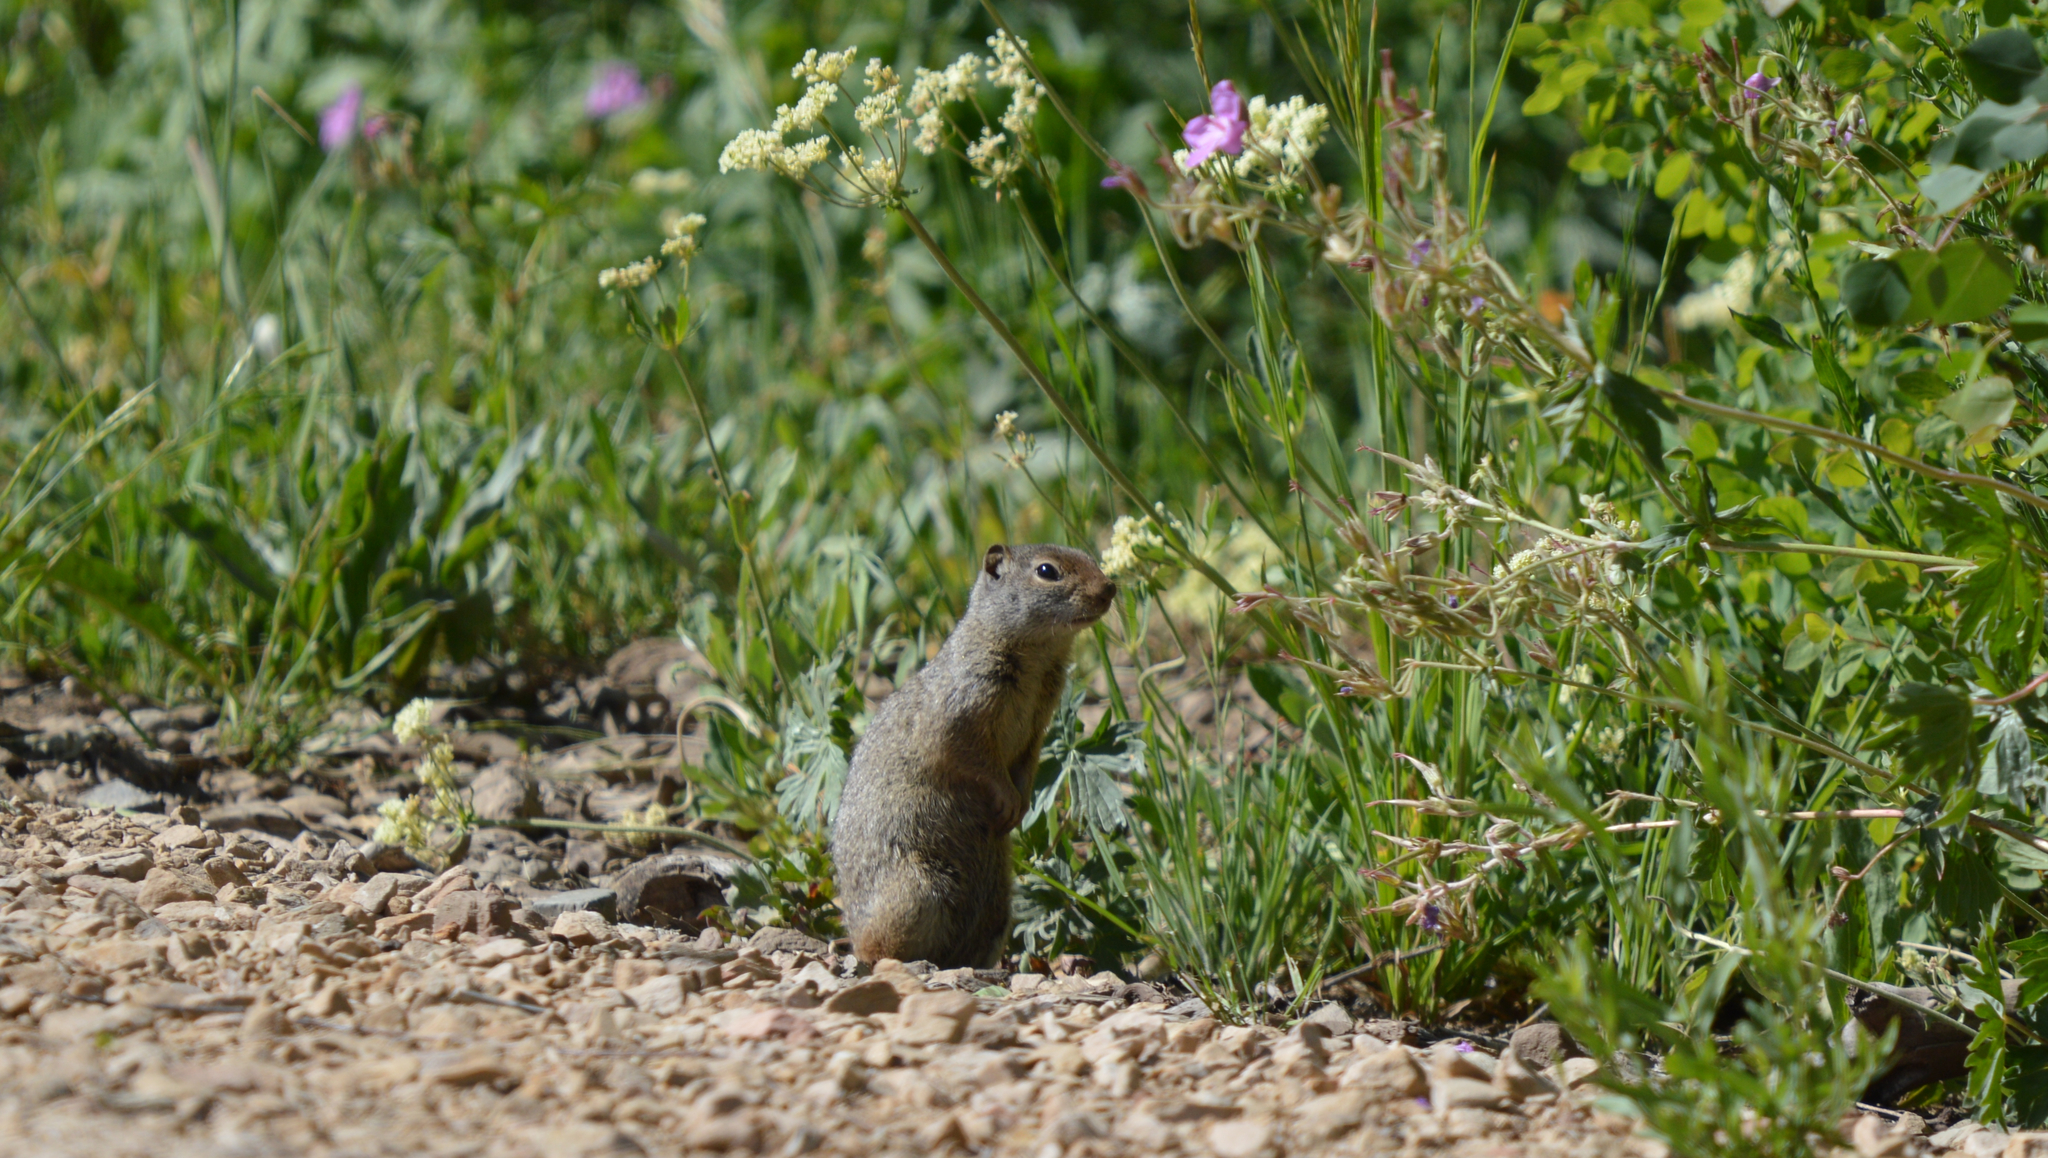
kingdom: Animalia
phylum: Chordata
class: Mammalia
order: Rodentia
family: Sciuridae
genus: Urocitellus
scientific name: Urocitellus armatus
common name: Uinta ground squirrel
